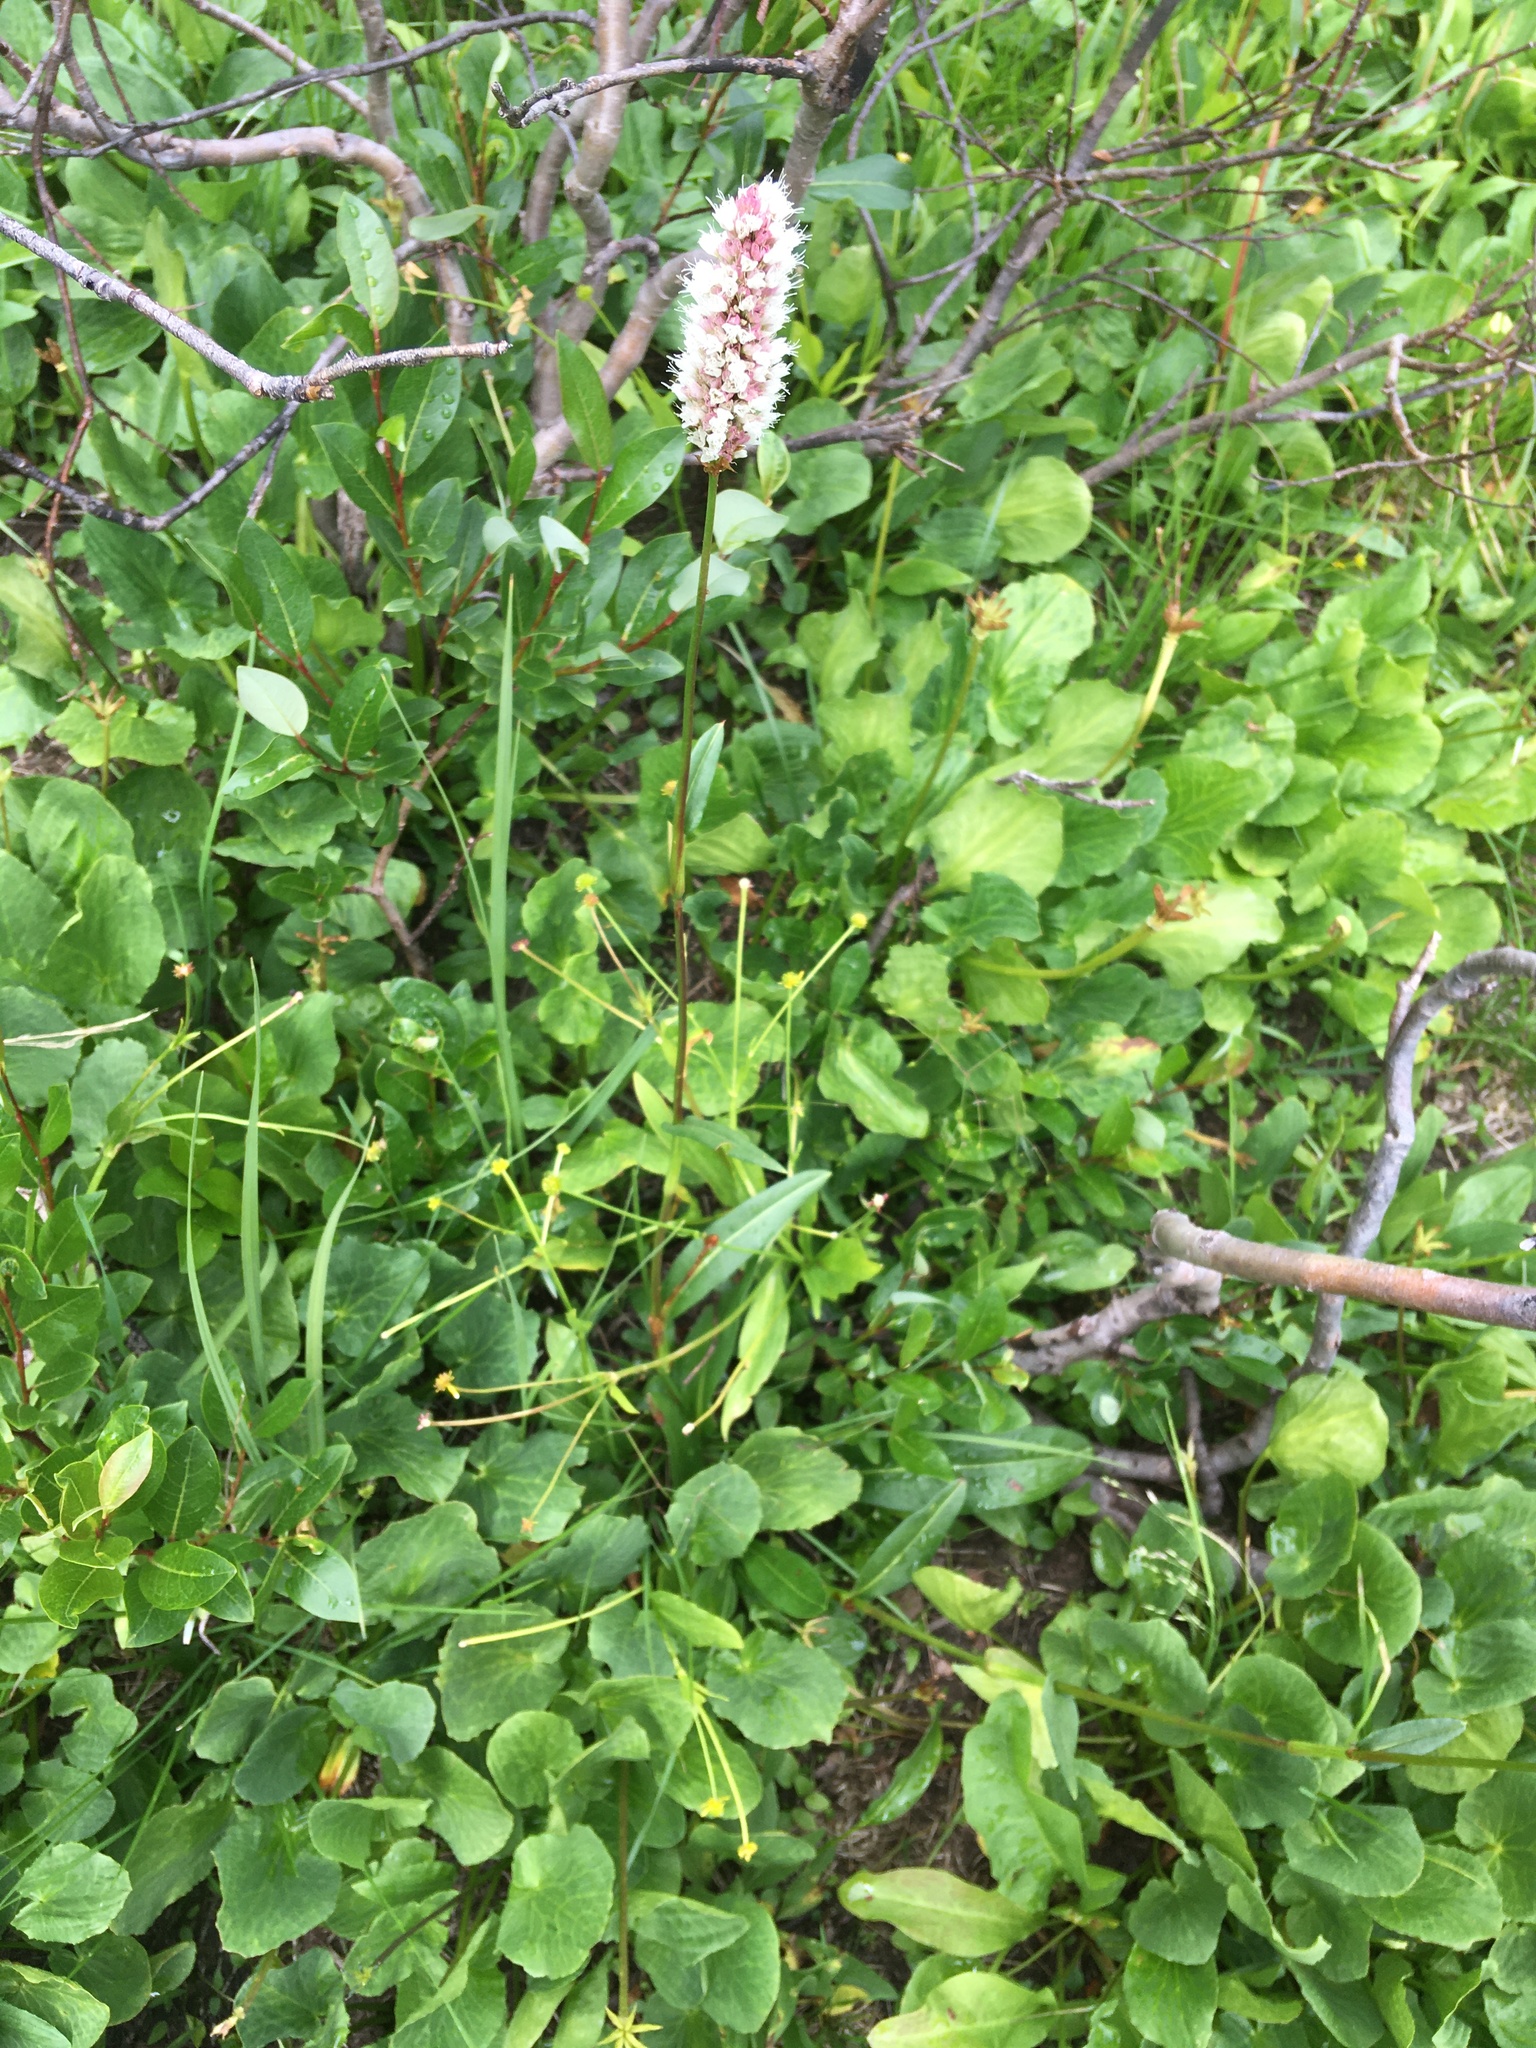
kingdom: Plantae
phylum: Tracheophyta
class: Magnoliopsida
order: Caryophyllales
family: Polygonaceae
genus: Bistorta
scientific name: Bistorta bistortoides
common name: American bistort
